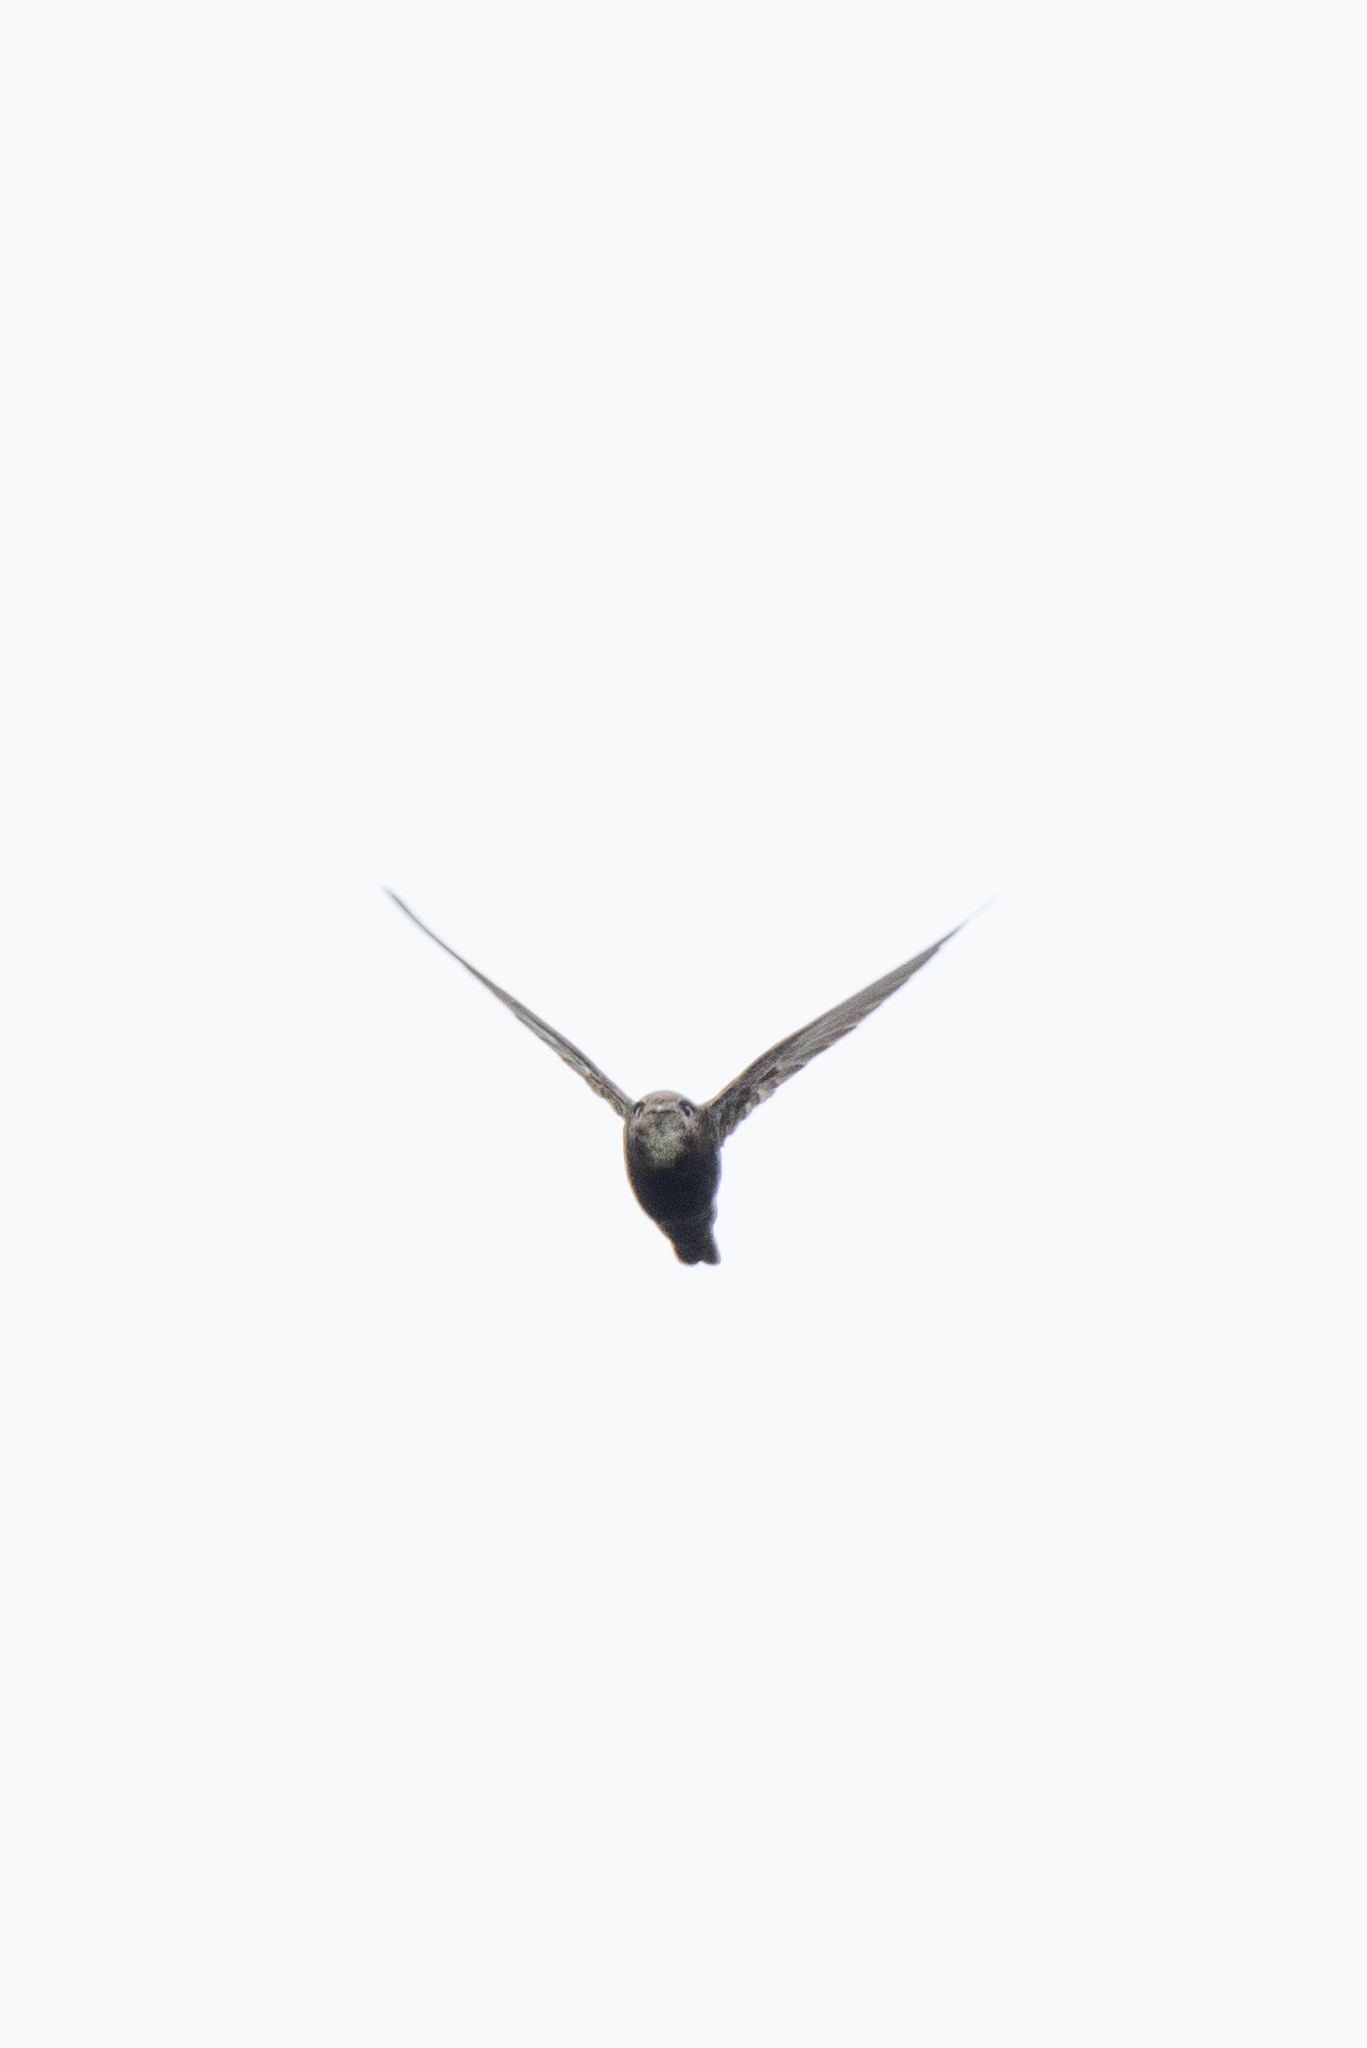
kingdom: Animalia
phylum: Chordata
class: Aves
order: Apodiformes
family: Apodidae
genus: Apus
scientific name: Apus nipalensis
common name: House swift
